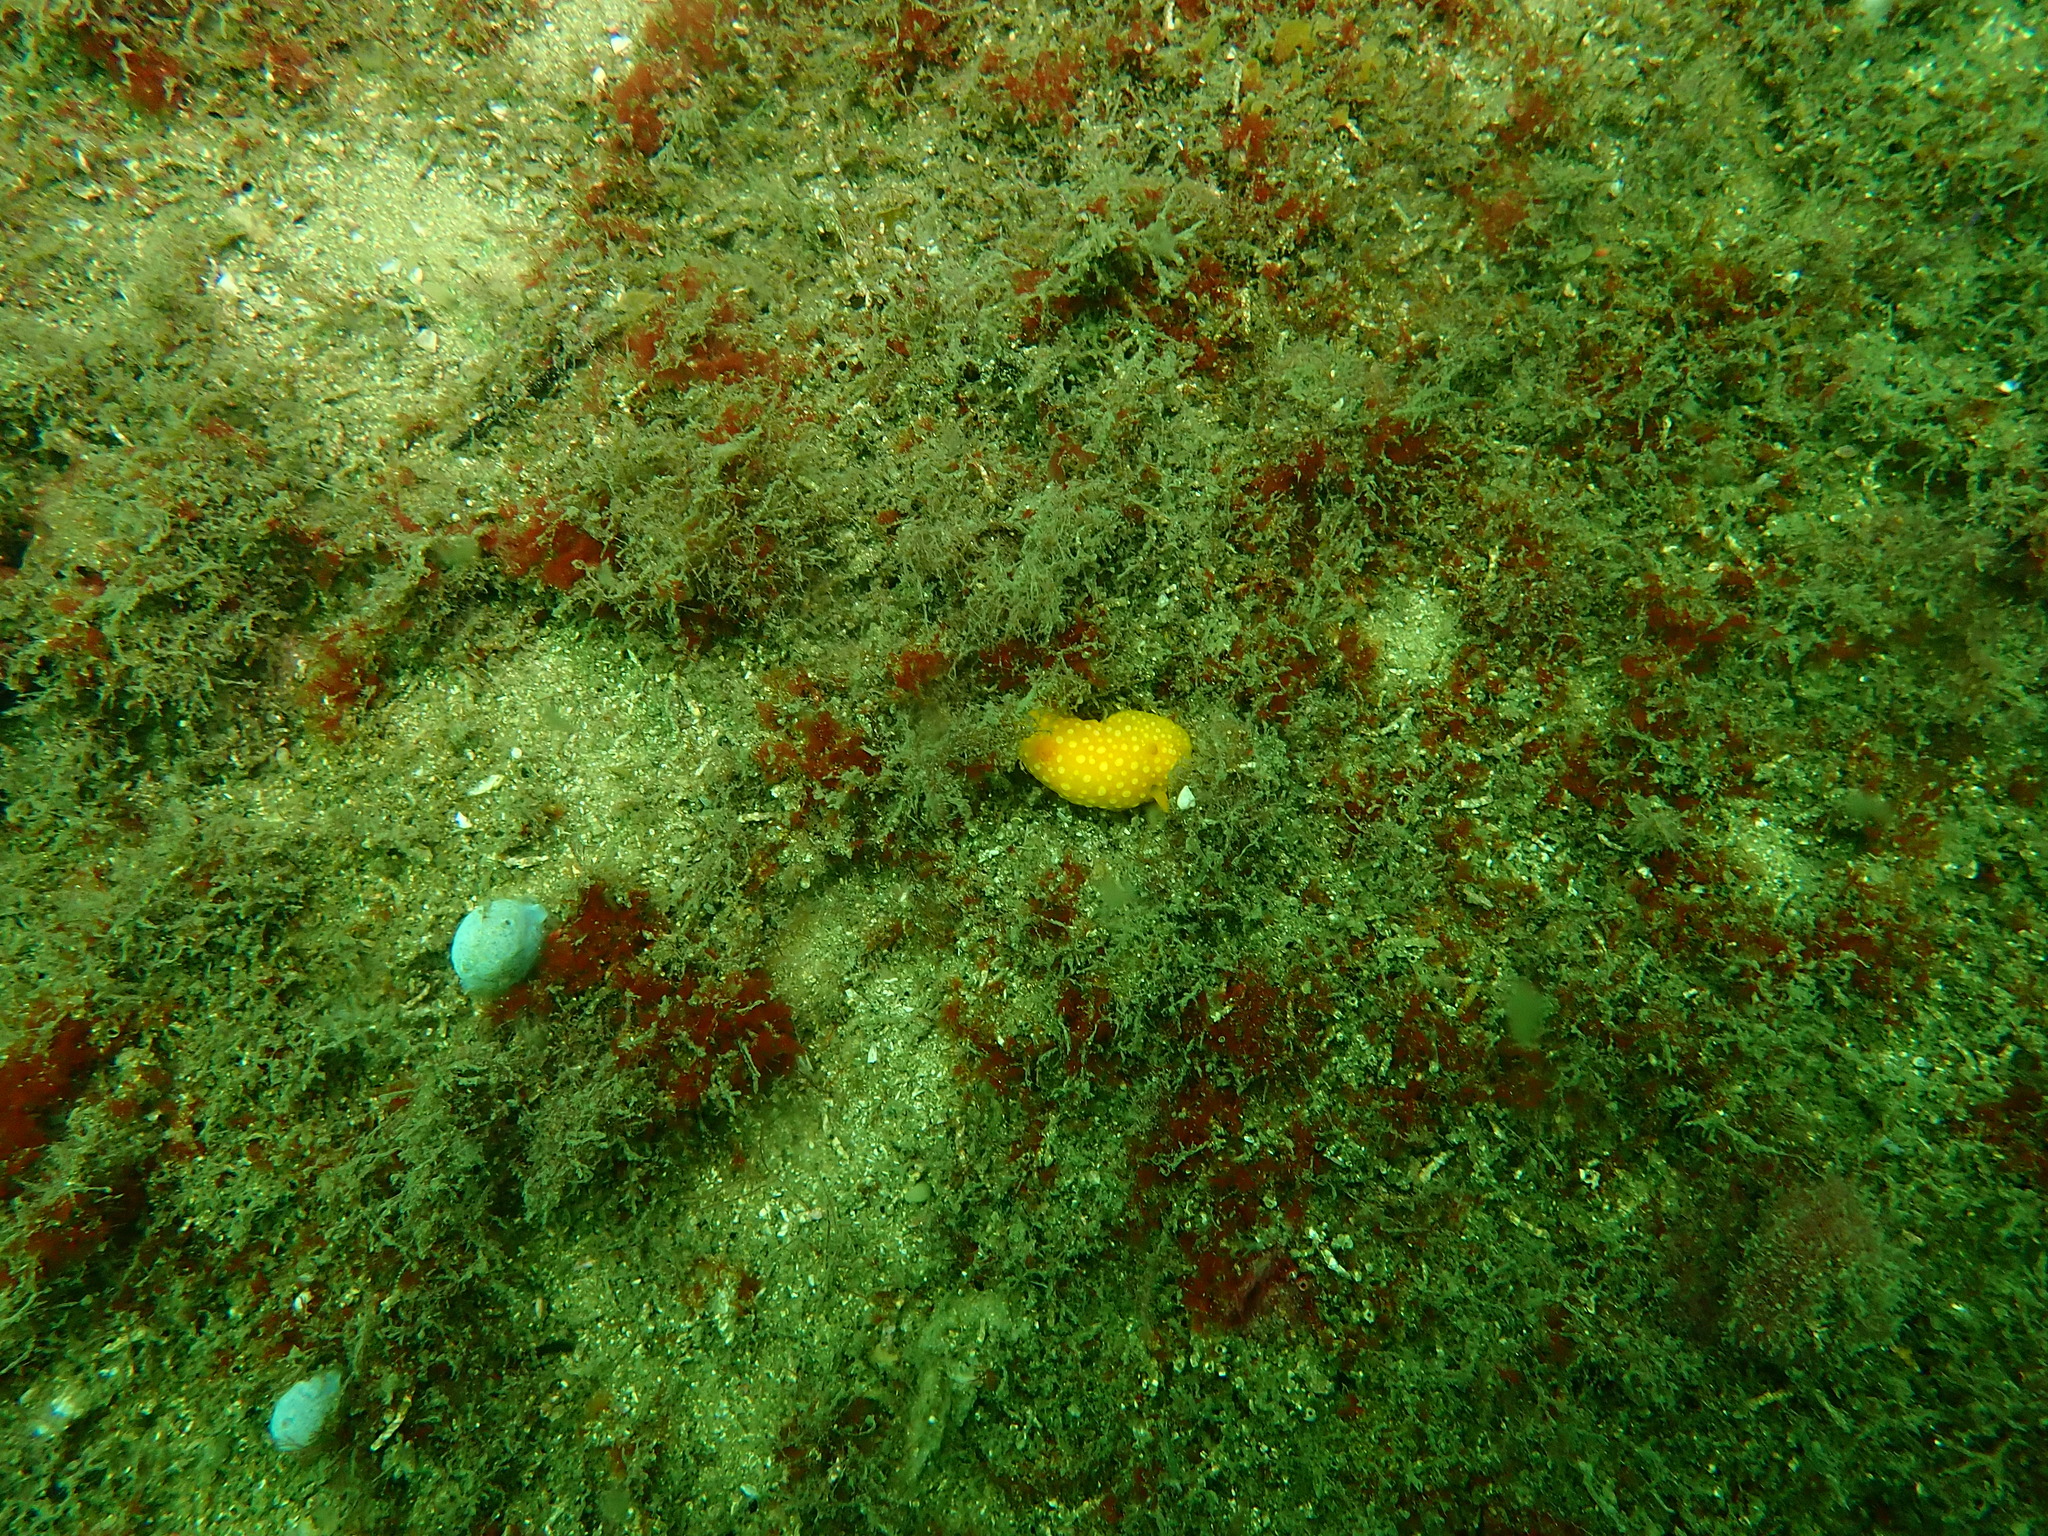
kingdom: Animalia
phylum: Mollusca
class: Gastropoda
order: Nudibranchia
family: Dorididae
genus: Doris
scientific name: Doris chrysoderma
